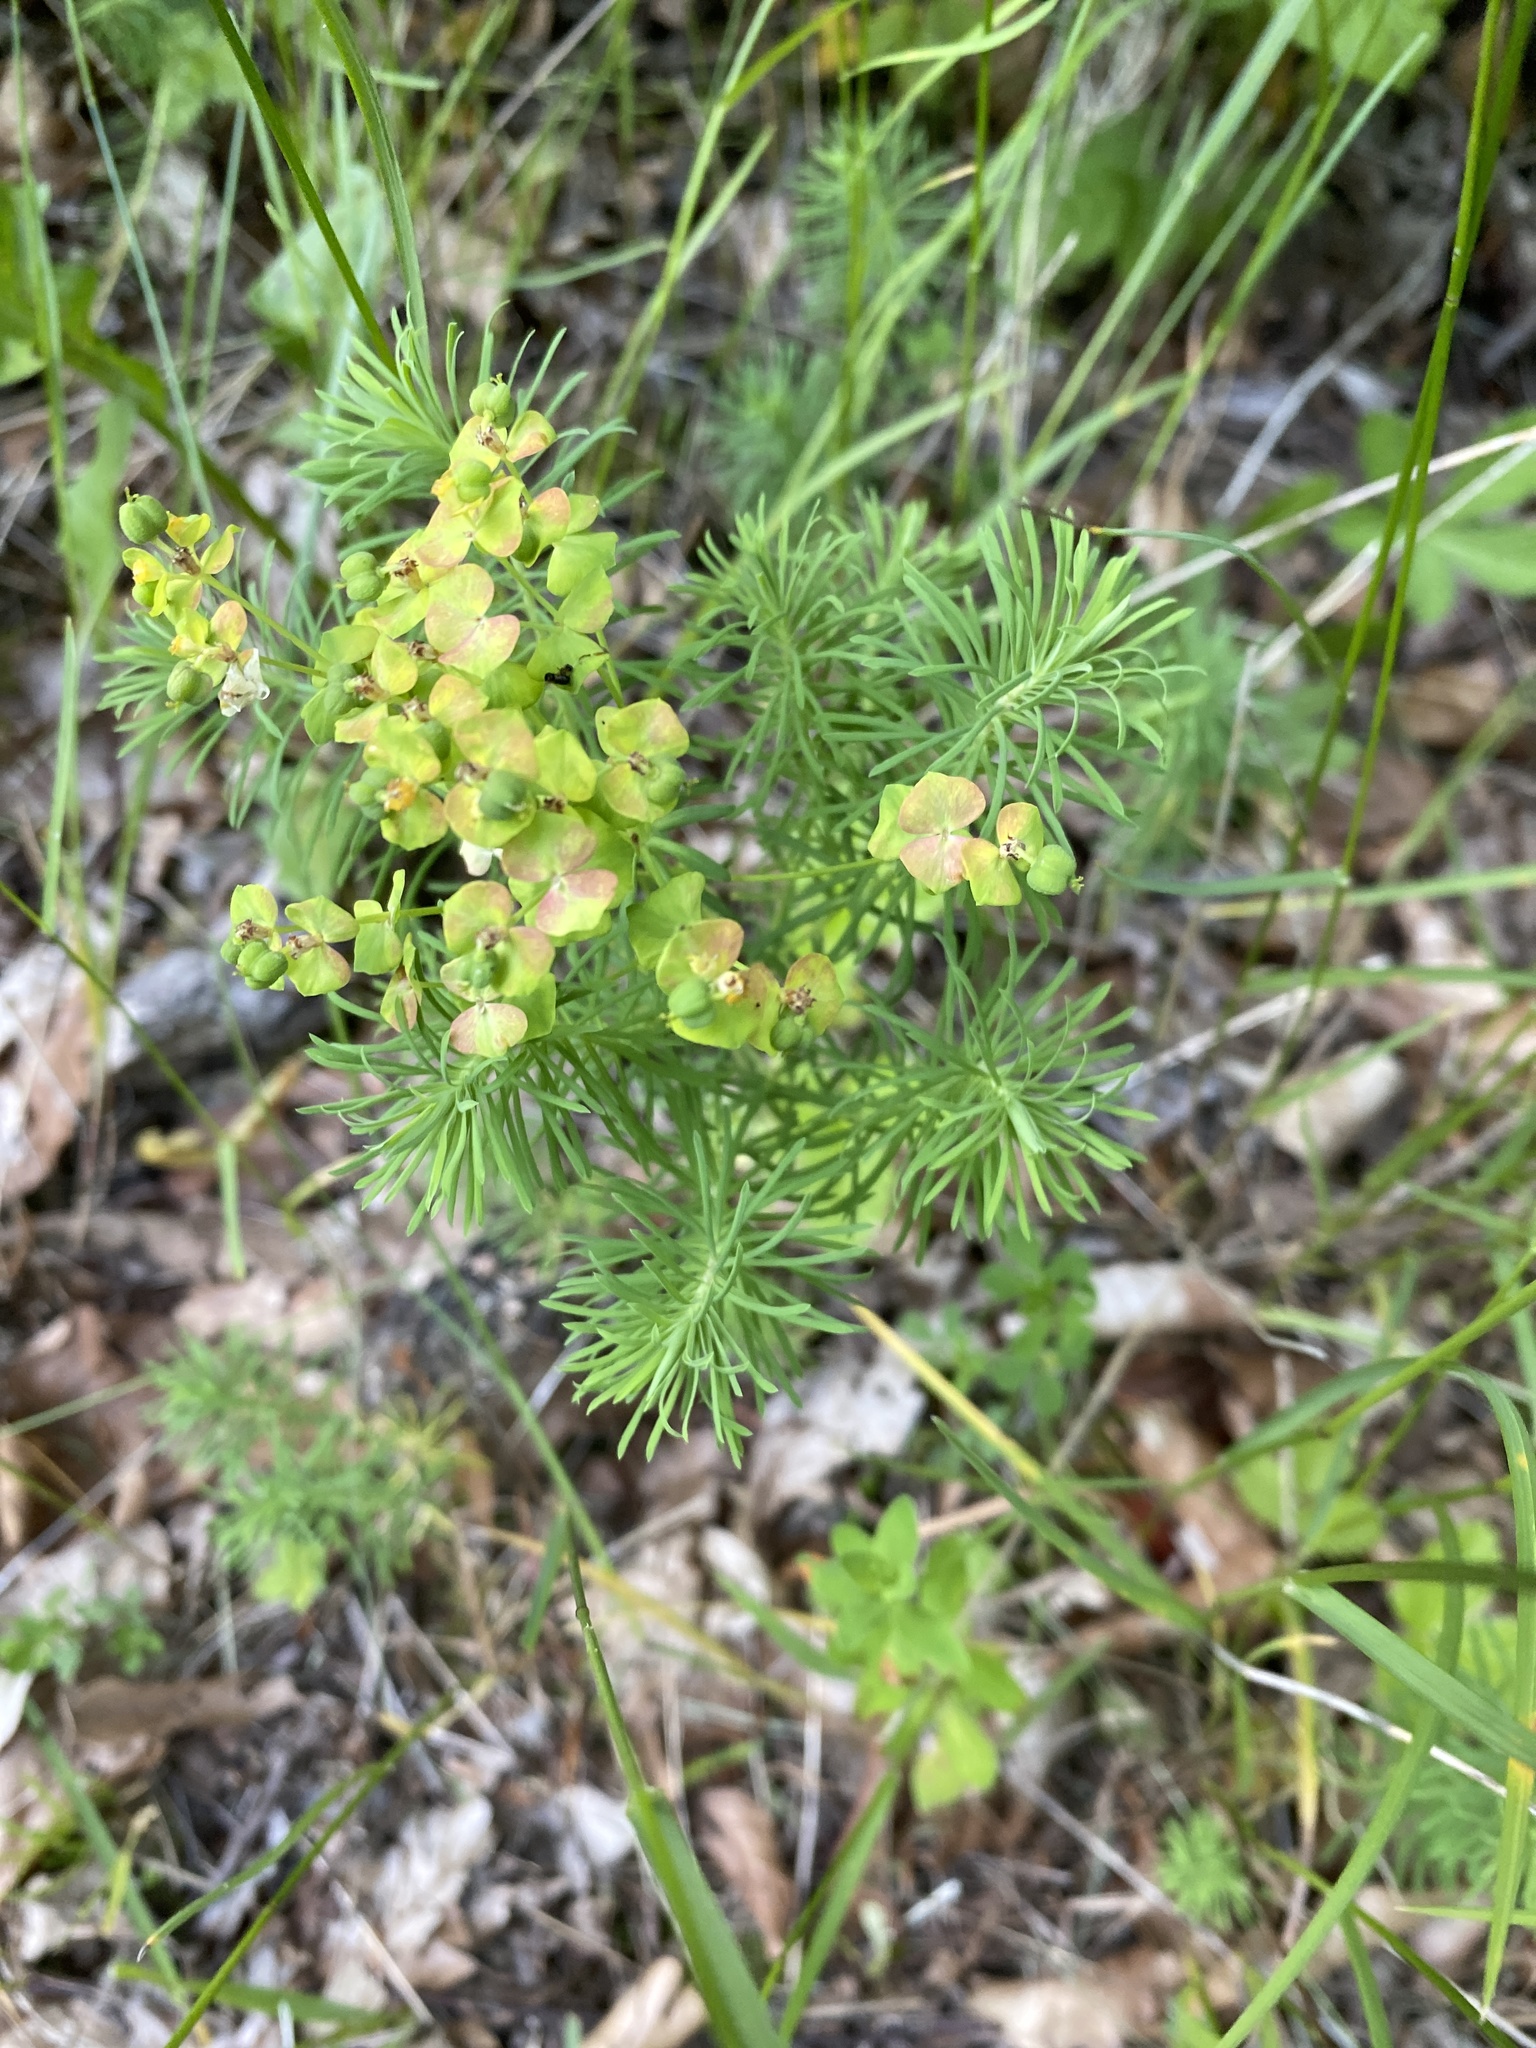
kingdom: Plantae
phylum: Tracheophyta
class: Magnoliopsida
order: Malpighiales
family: Euphorbiaceae
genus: Euphorbia
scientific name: Euphorbia cyparissias
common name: Cypress spurge
